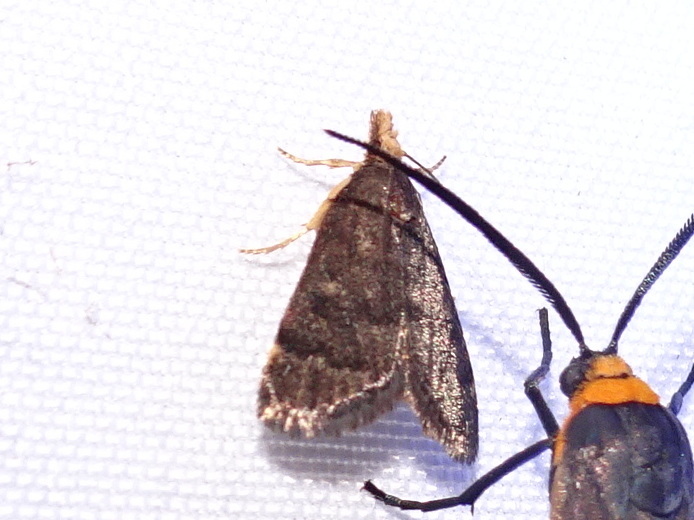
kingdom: Animalia
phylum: Arthropoda
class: Insecta
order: Lepidoptera
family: Crambidae
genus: Pyrausta
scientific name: Pyrausta merrickalis
